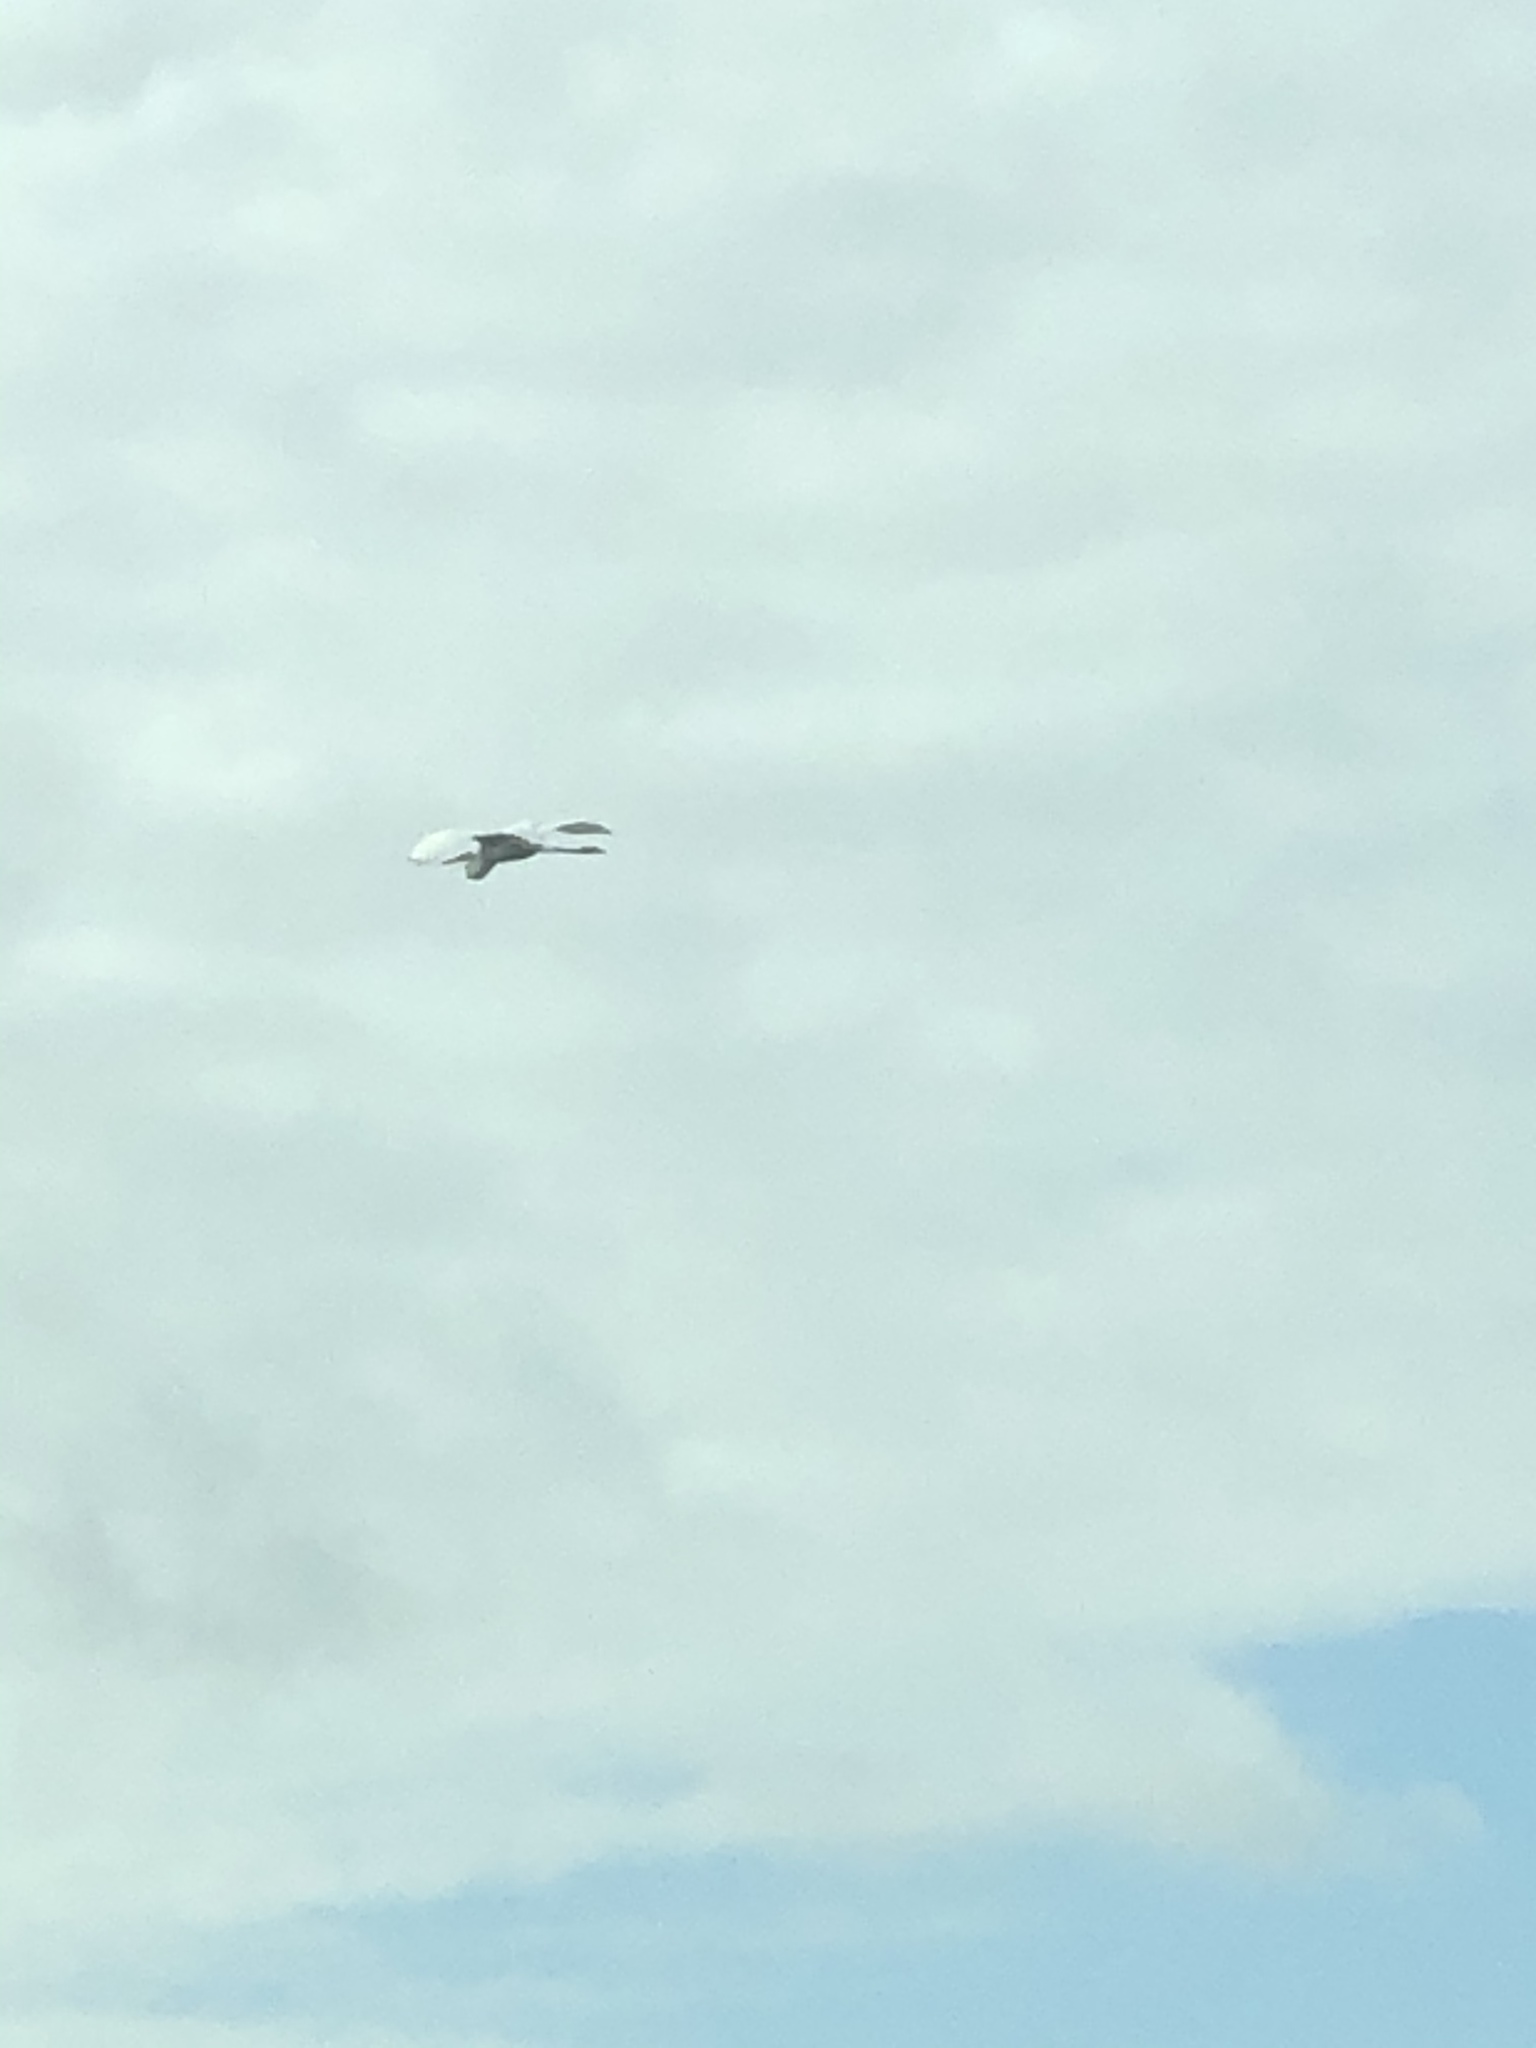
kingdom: Animalia
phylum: Chordata
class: Aves
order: Pelecaniformes
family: Ardeidae
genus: Ardea
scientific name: Ardea alba
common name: Great egret
